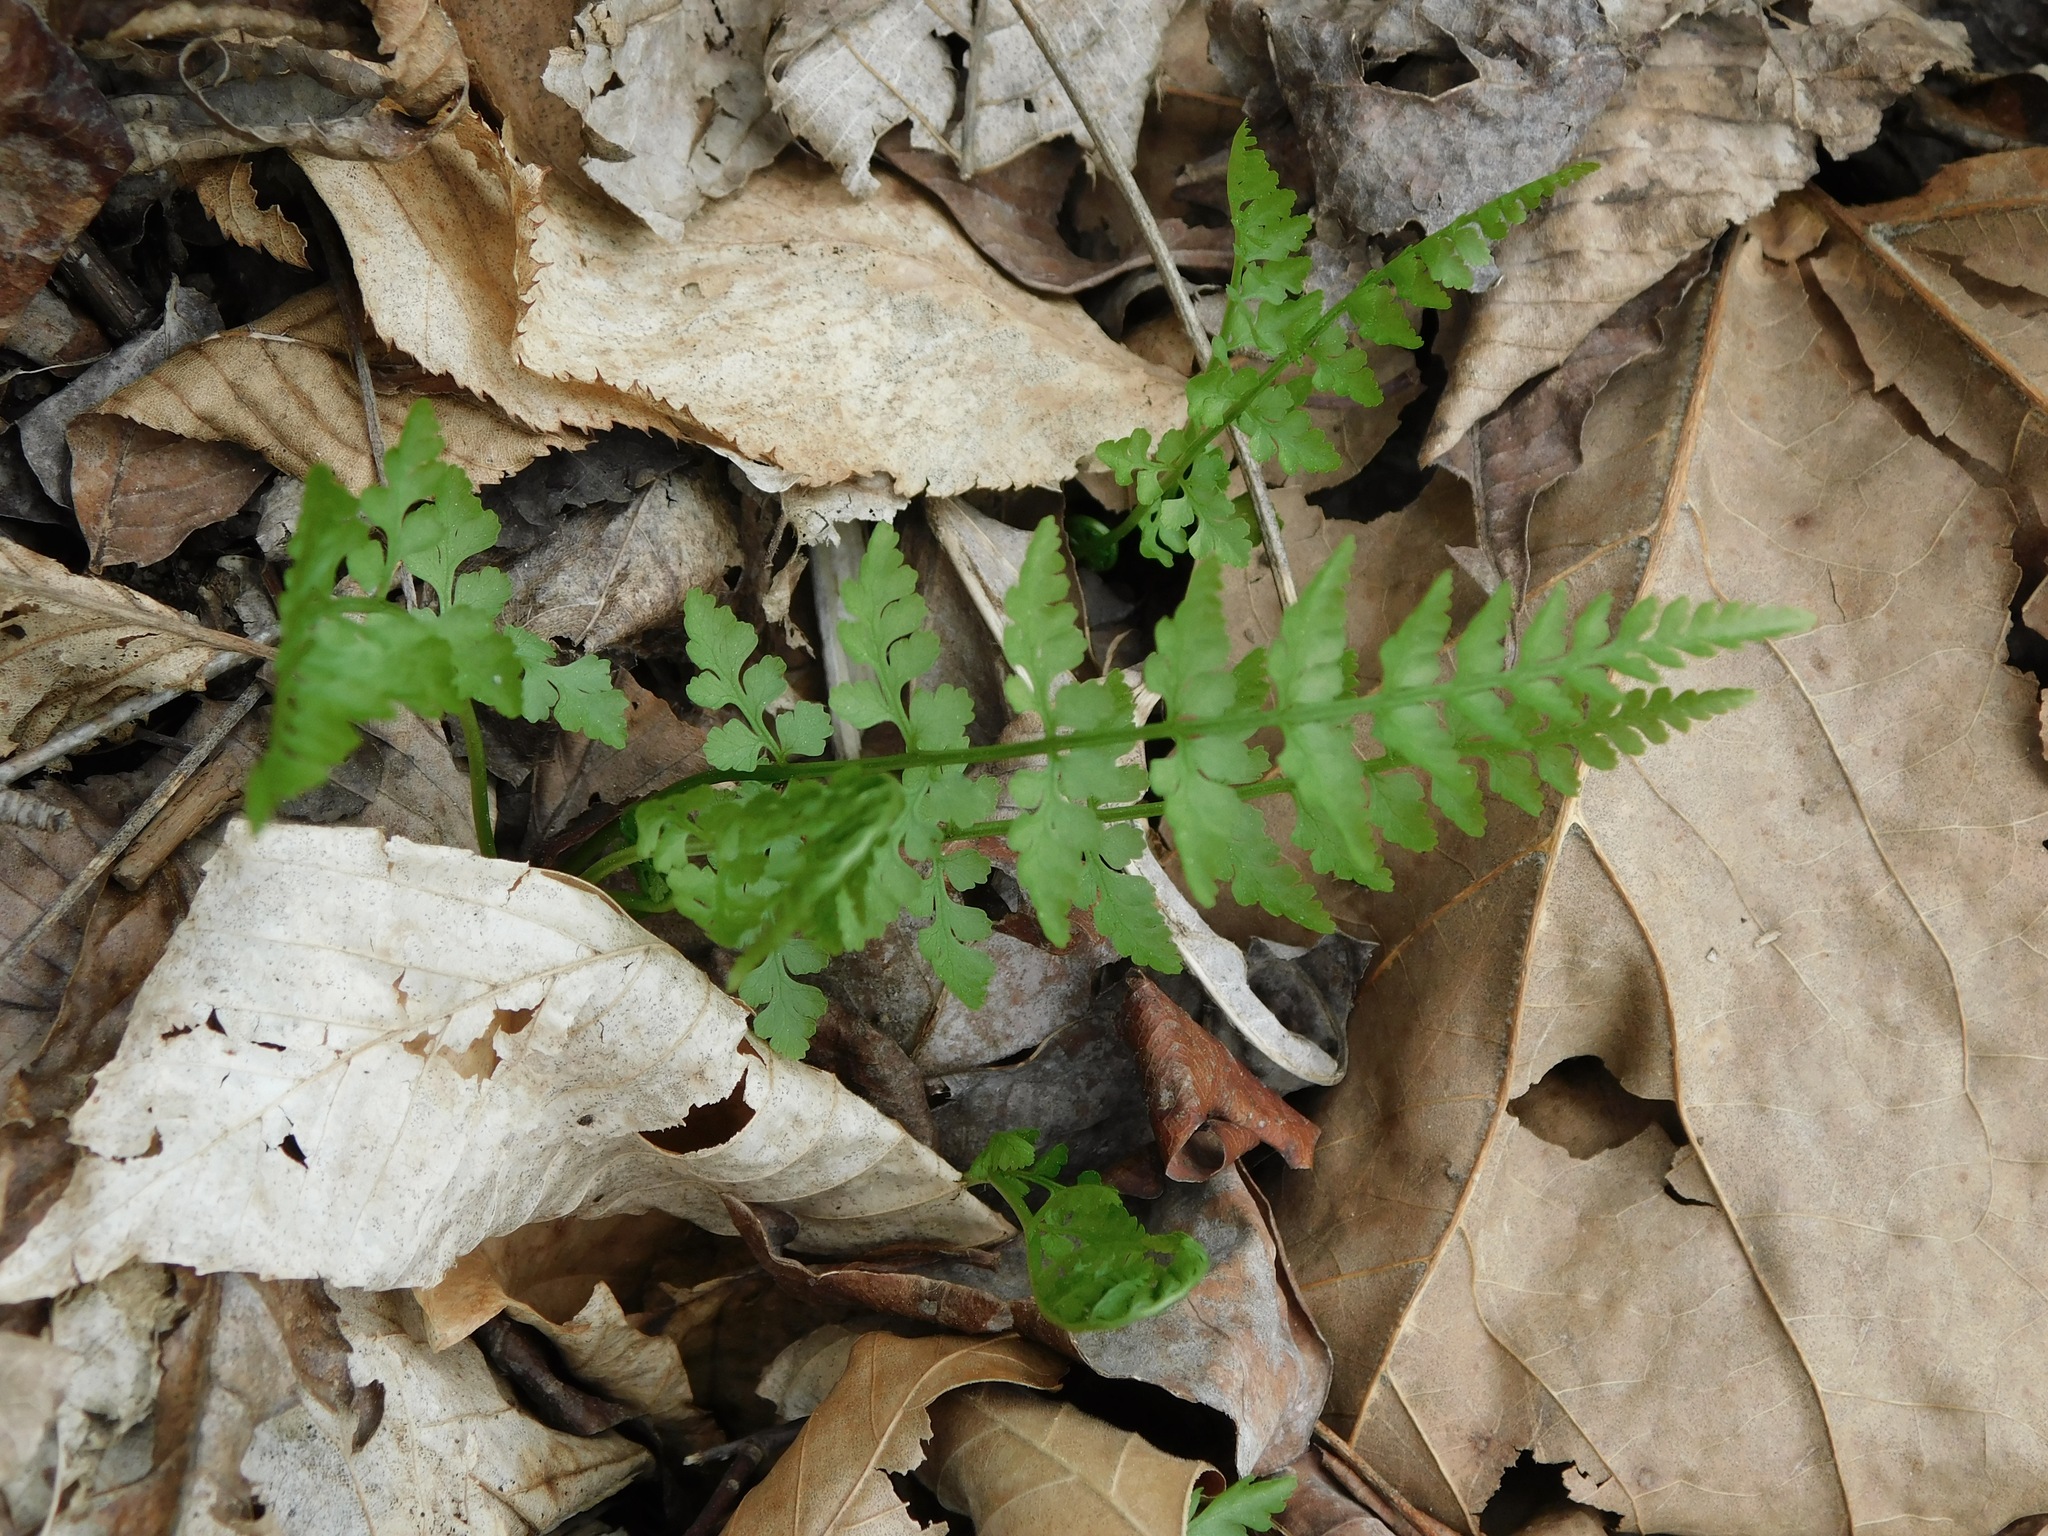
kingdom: Plantae
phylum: Tracheophyta
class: Polypodiopsida
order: Polypodiales
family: Cystopteridaceae
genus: Cystopteris
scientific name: Cystopteris protrusa
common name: Lowland brittle fern
